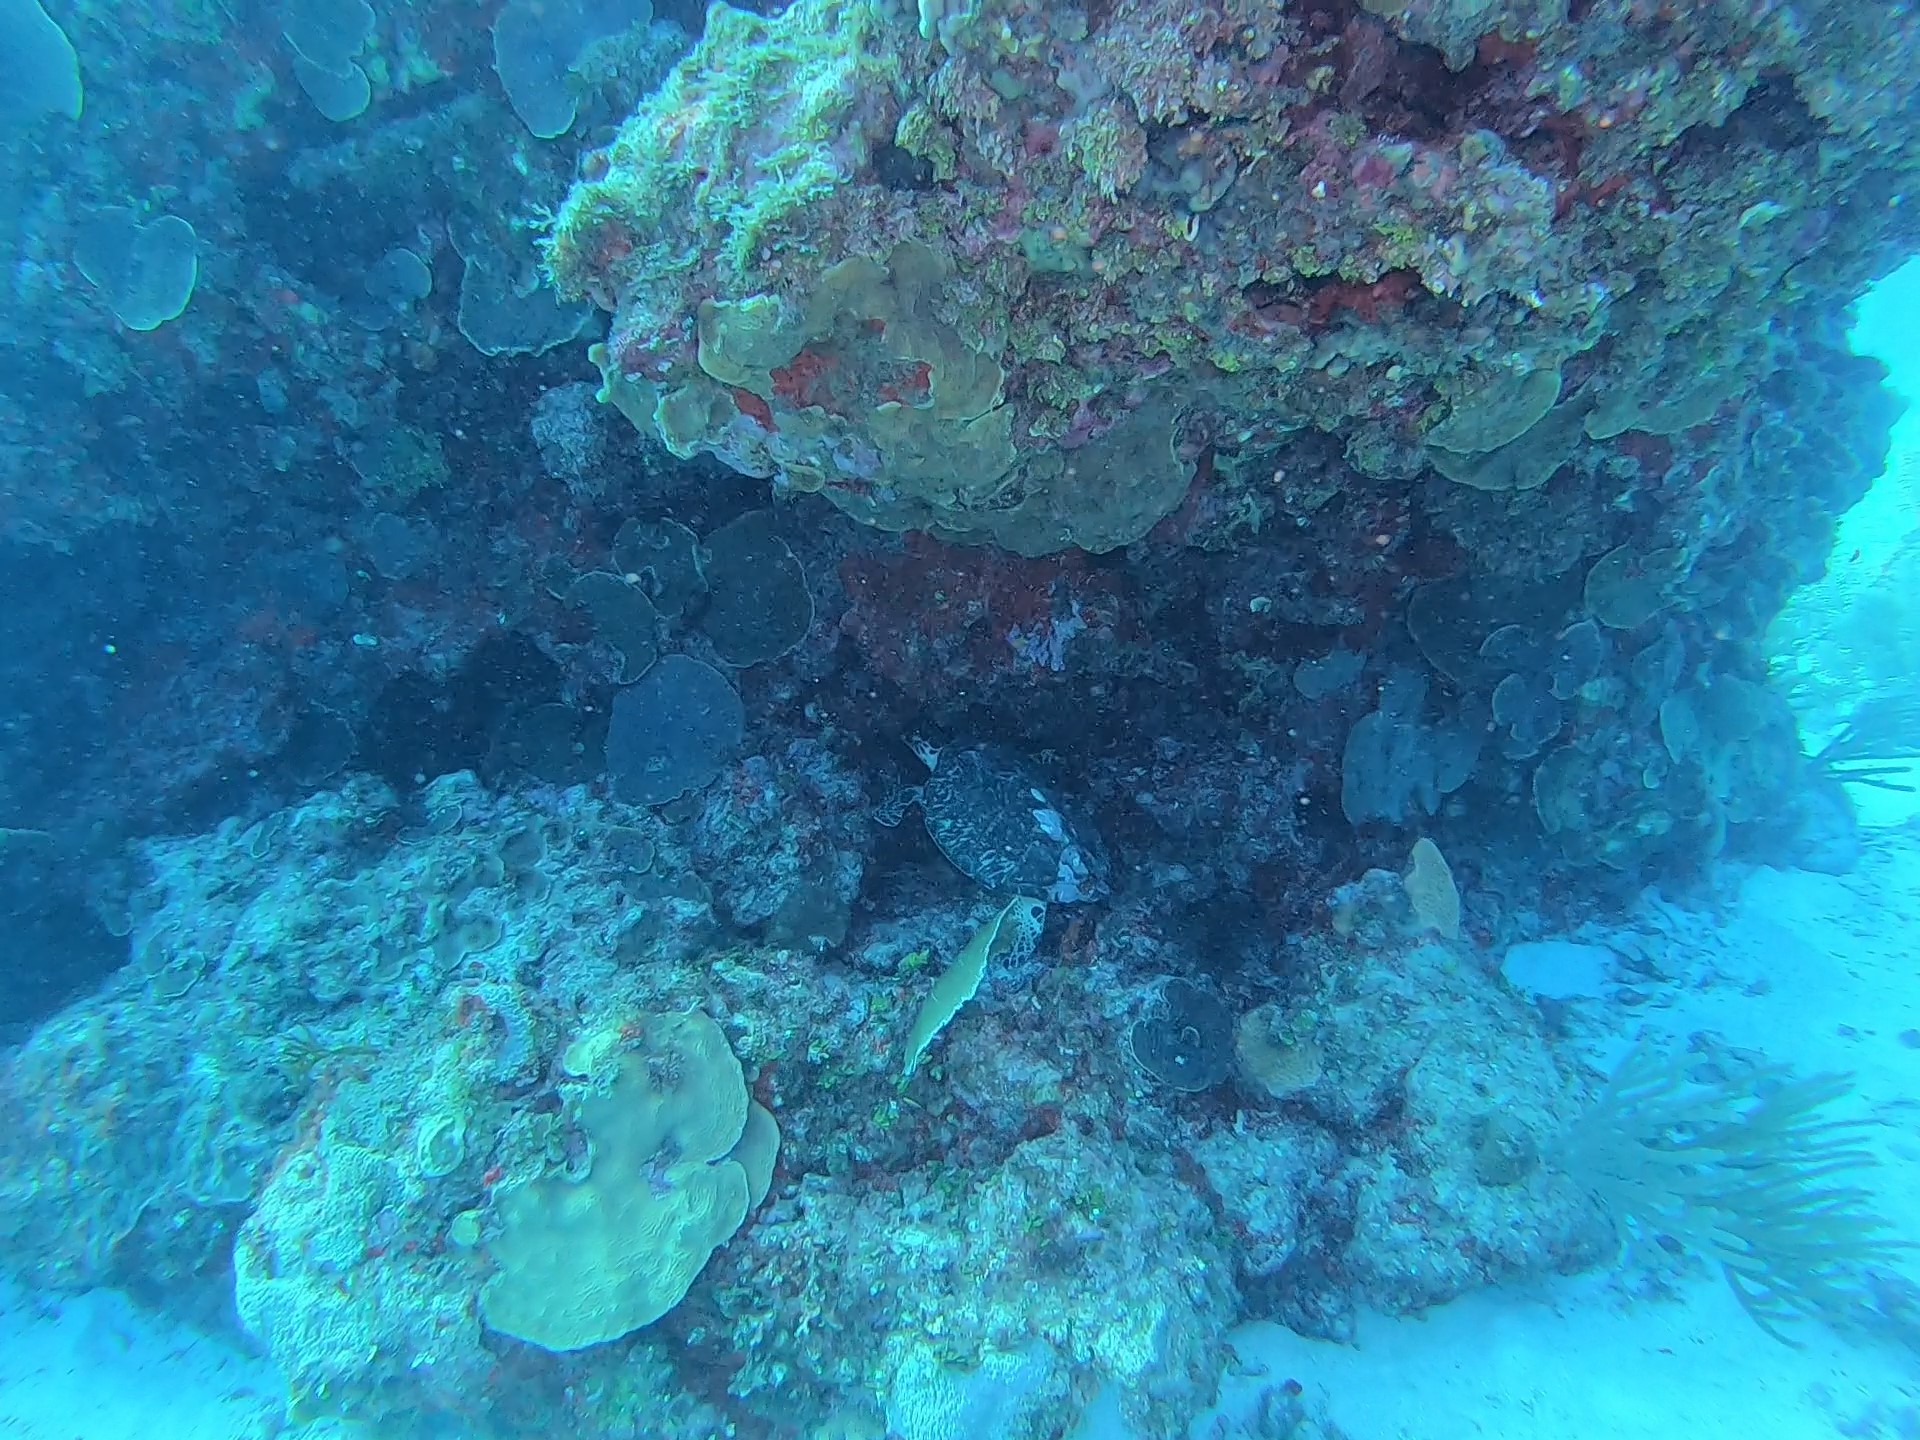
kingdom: Animalia
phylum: Chordata
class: Testudines
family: Cheloniidae
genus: Eretmochelys
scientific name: Eretmochelys imbricata
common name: Hawksbill turtle
